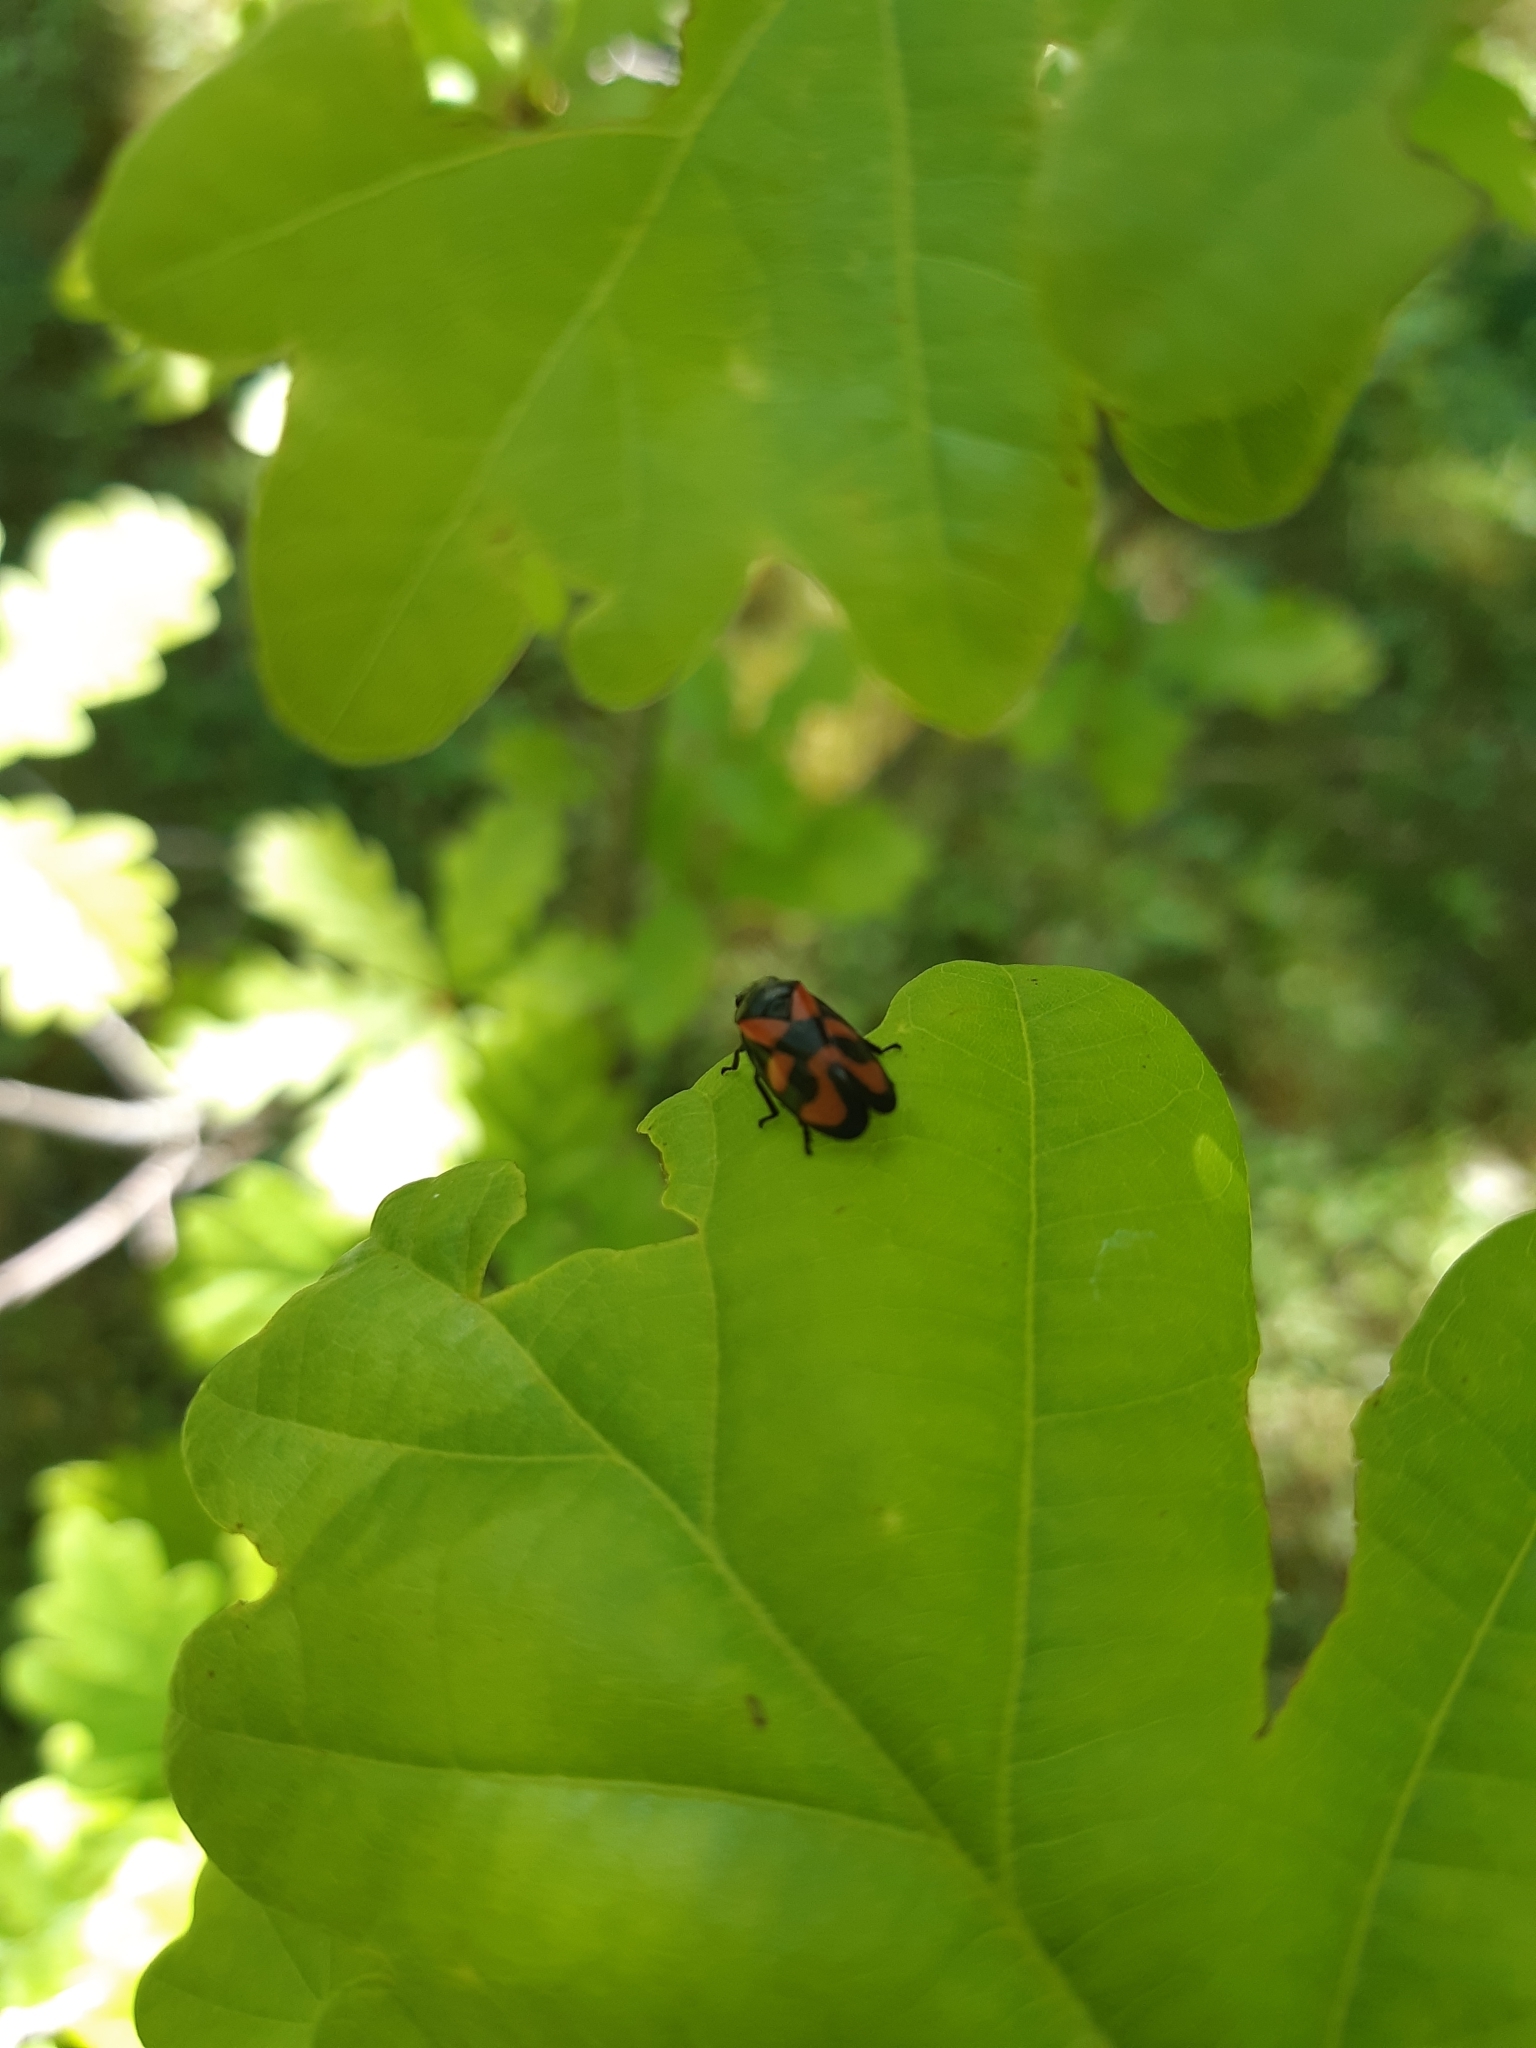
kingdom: Animalia
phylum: Arthropoda
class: Insecta
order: Hemiptera
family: Cercopidae
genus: Cercopis
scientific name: Cercopis vulnerata
